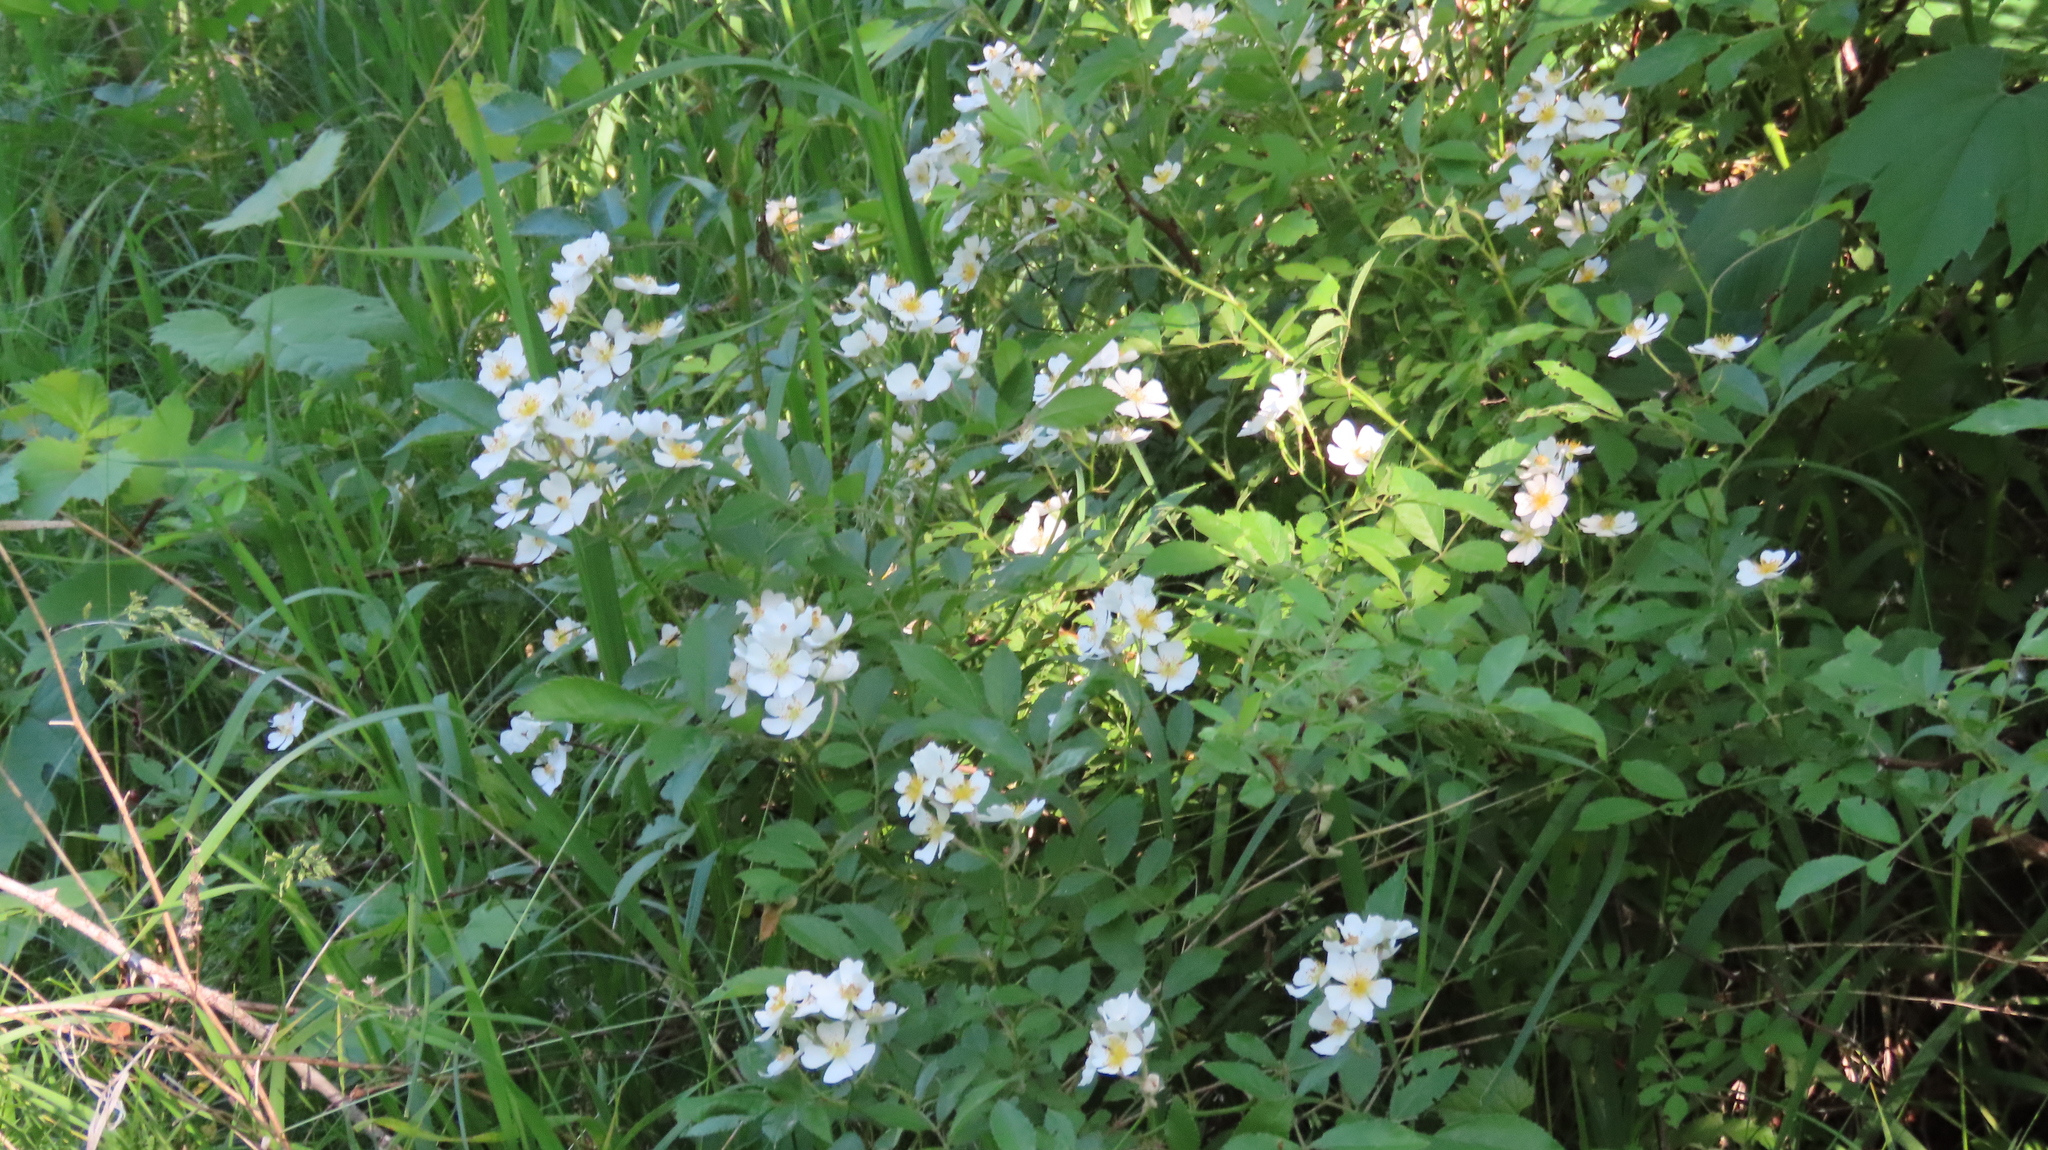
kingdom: Plantae
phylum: Tracheophyta
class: Magnoliopsida
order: Rosales
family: Rosaceae
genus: Rosa
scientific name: Rosa multiflora
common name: Multiflora rose
